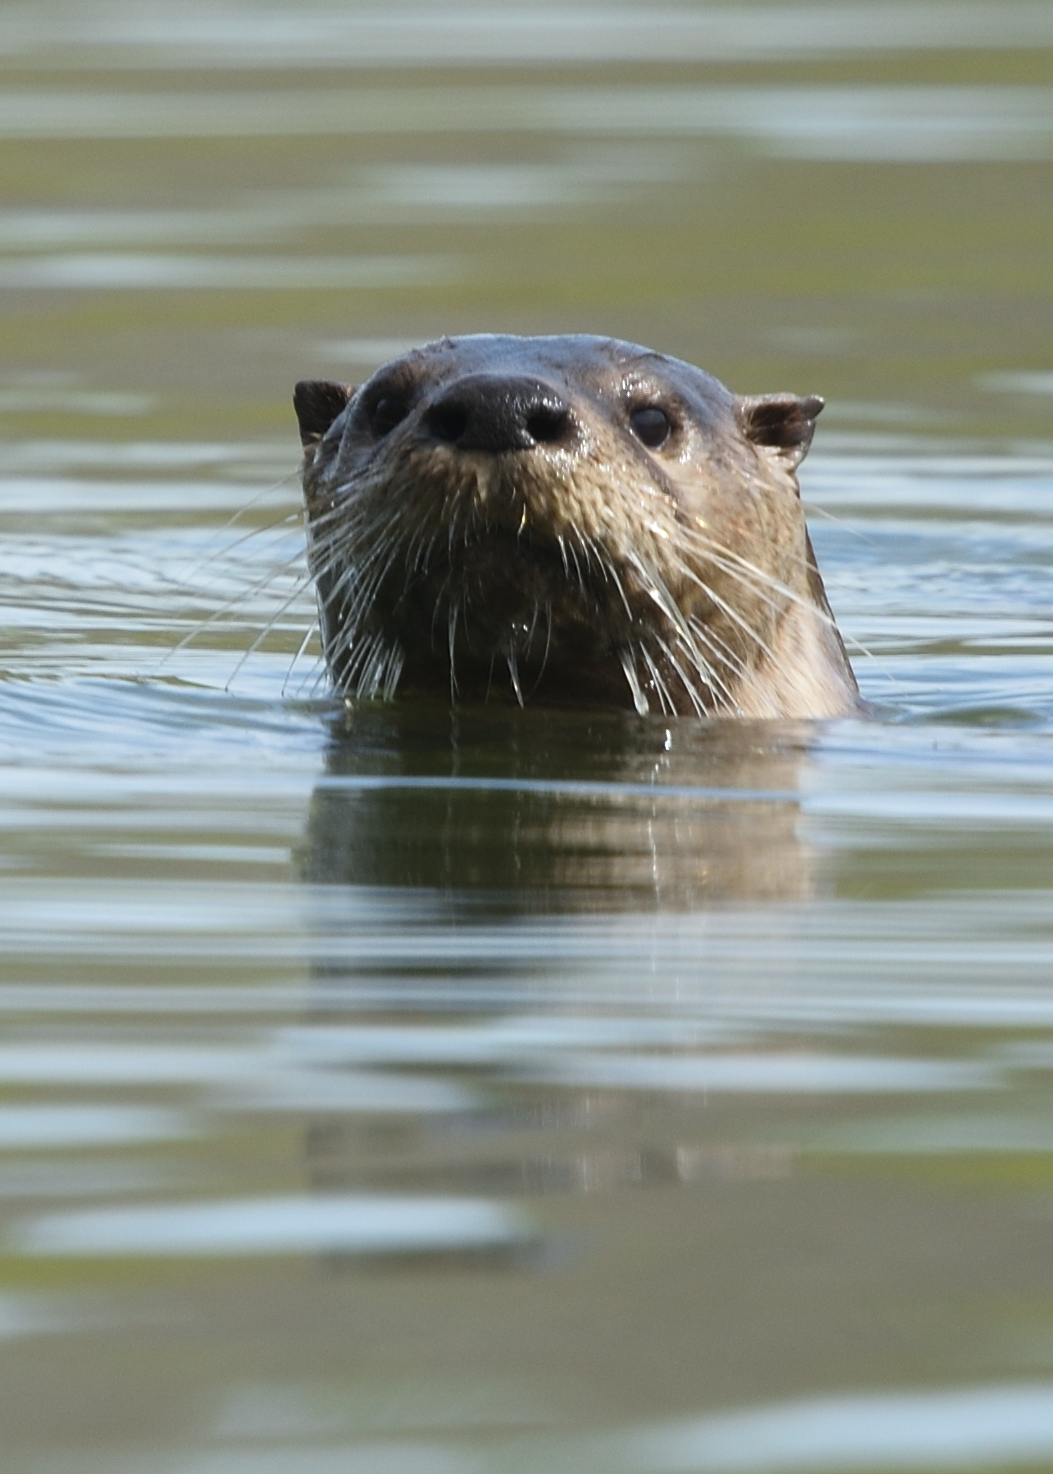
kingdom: Animalia
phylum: Chordata
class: Mammalia
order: Carnivora
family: Mustelidae
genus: Lontra
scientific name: Lontra canadensis
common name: North american river otter
